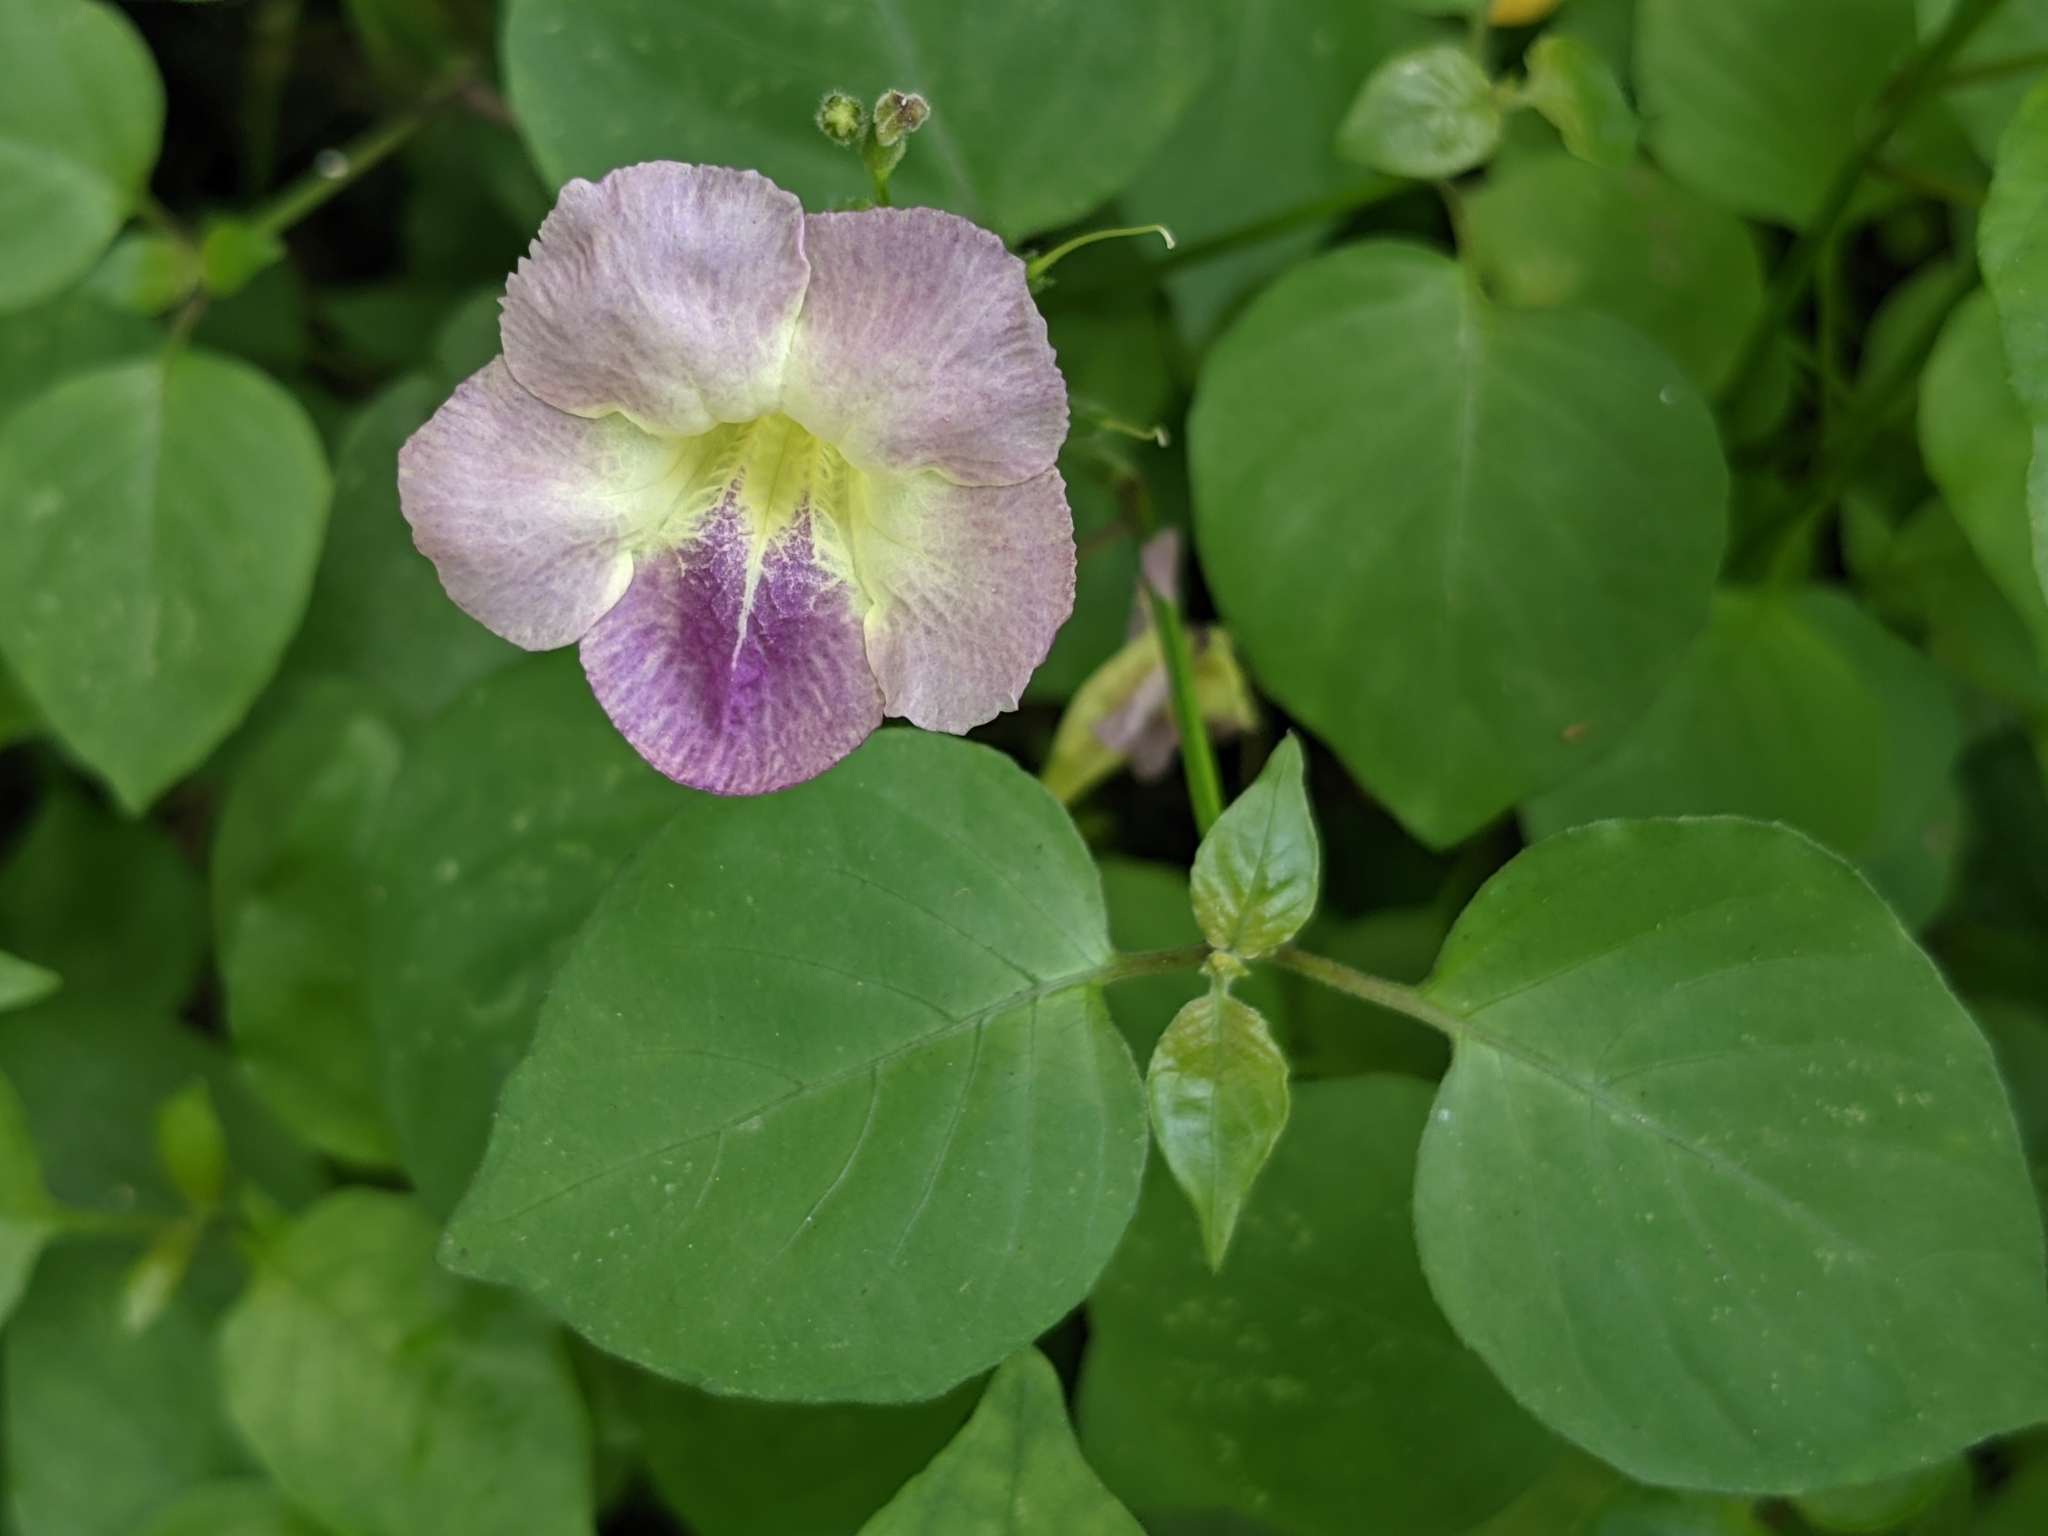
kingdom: Plantae
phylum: Tracheophyta
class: Magnoliopsida
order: Lamiales
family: Acanthaceae
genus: Asystasia
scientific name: Asystasia gangetica
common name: Chinese violet
